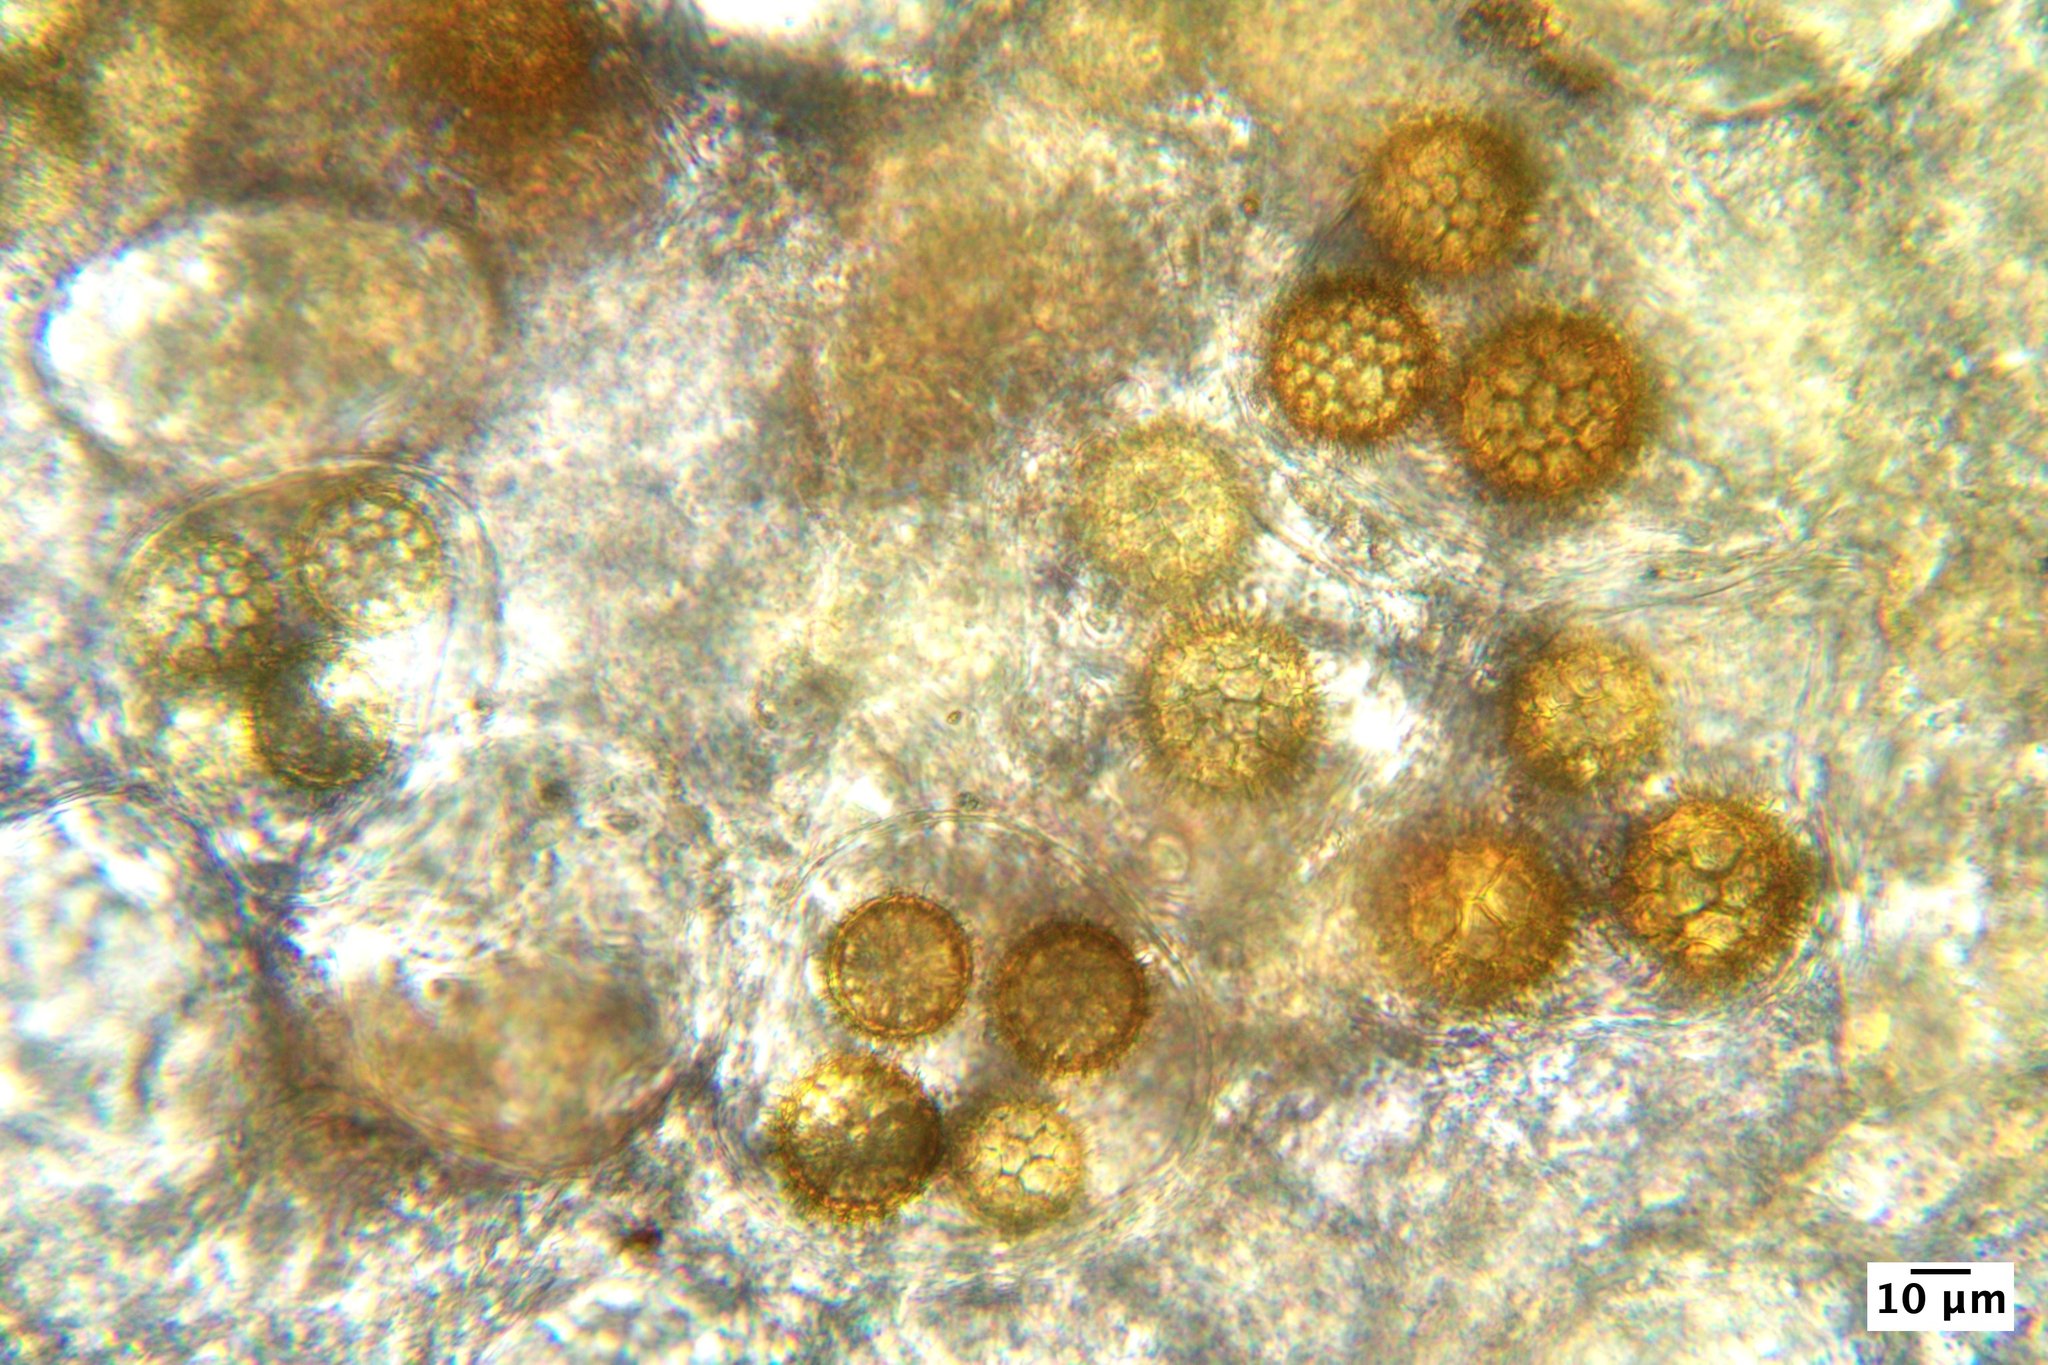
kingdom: Fungi
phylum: Ascomycota
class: Pezizomycetes
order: Pezizales
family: Tuberaceae
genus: Tuber
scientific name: Tuber californicum
